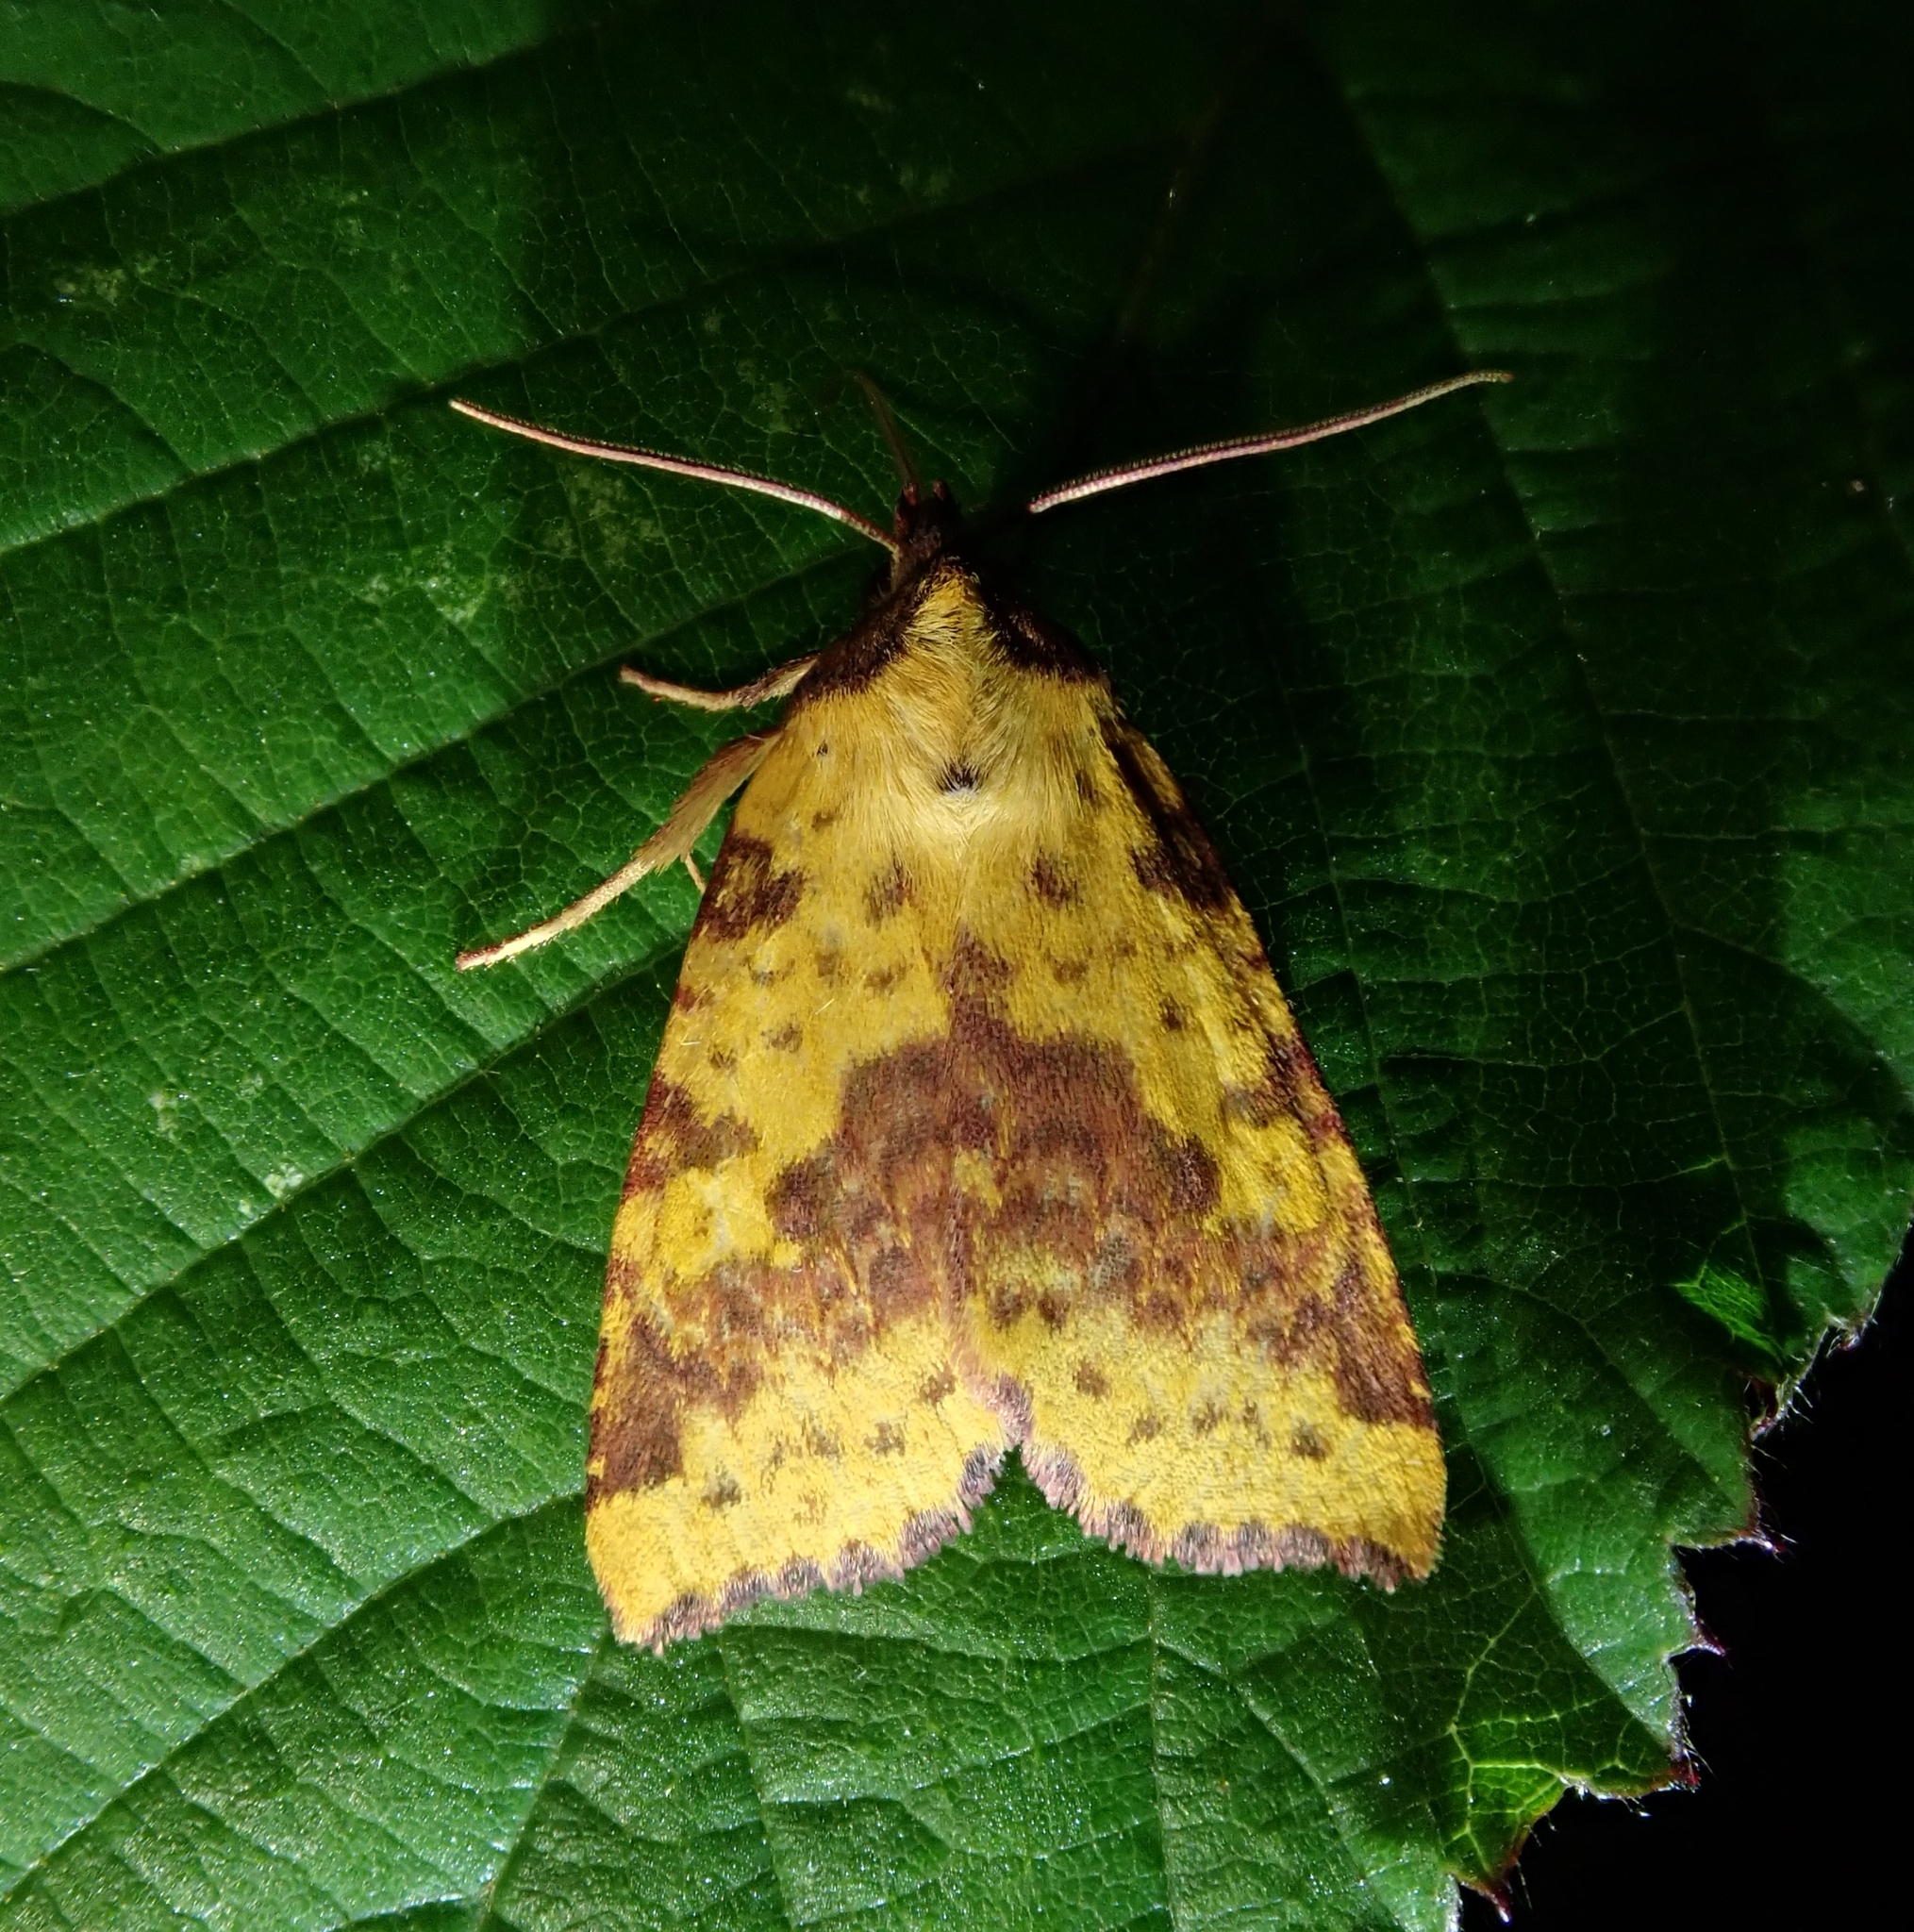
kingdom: Animalia
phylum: Arthropoda
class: Insecta
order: Lepidoptera
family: Noctuidae
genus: Xanthia
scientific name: Xanthia togata
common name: Pink-barred sallow
